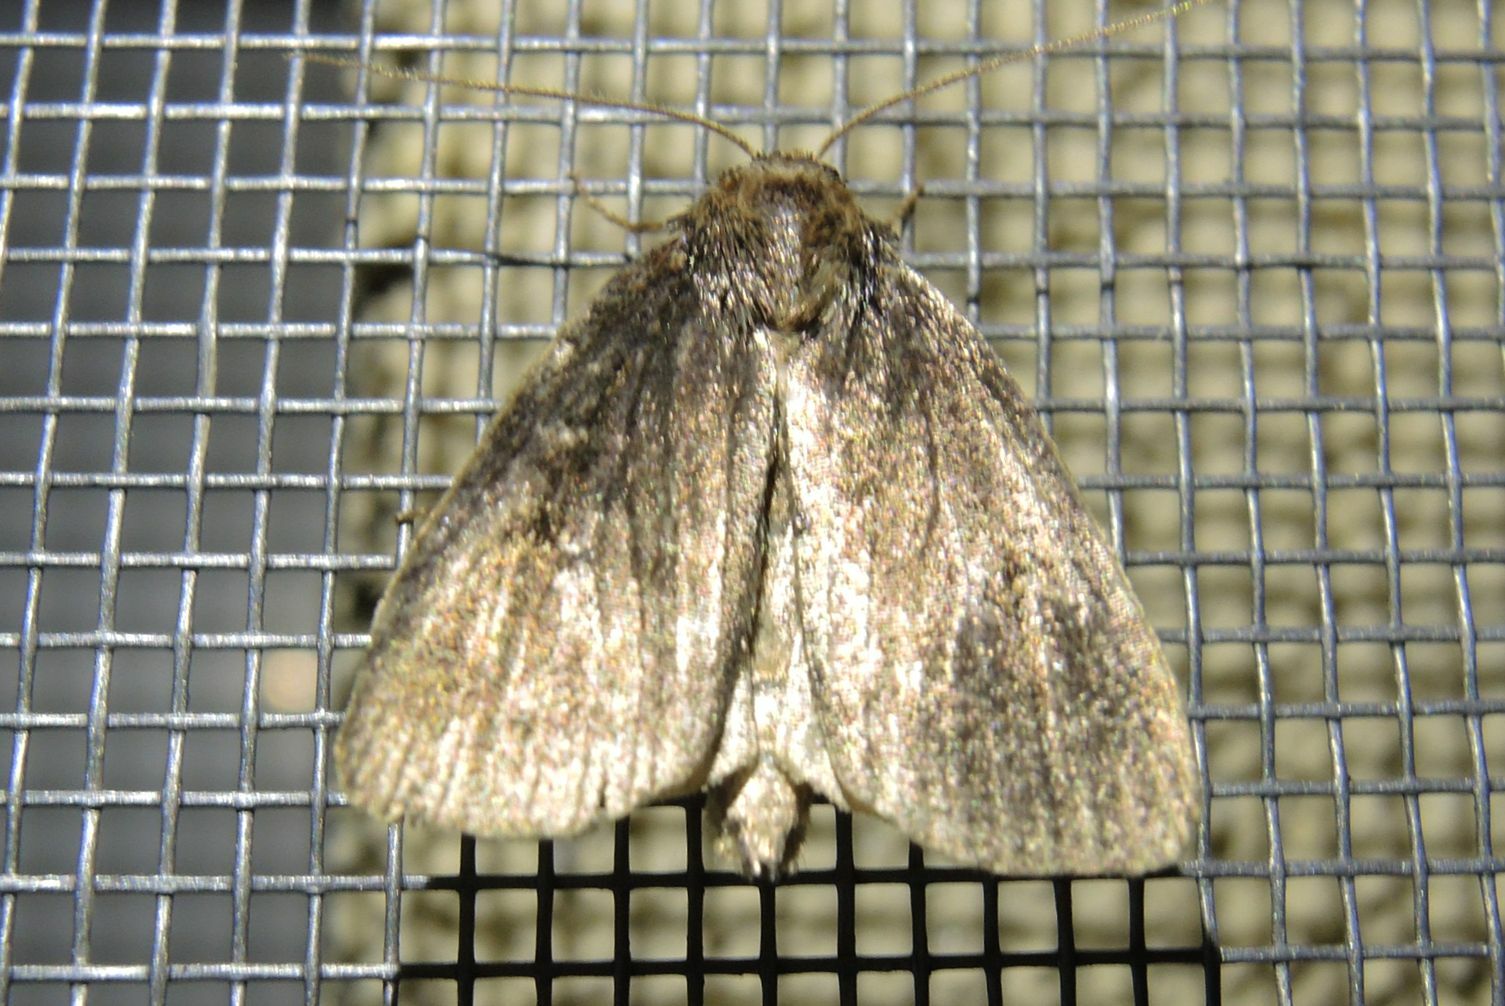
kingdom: Animalia
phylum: Arthropoda
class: Insecta
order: Lepidoptera
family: Noctuidae
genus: Lenisa
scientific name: Lenisa geminipuncta
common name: Twin-spotted wainscot
